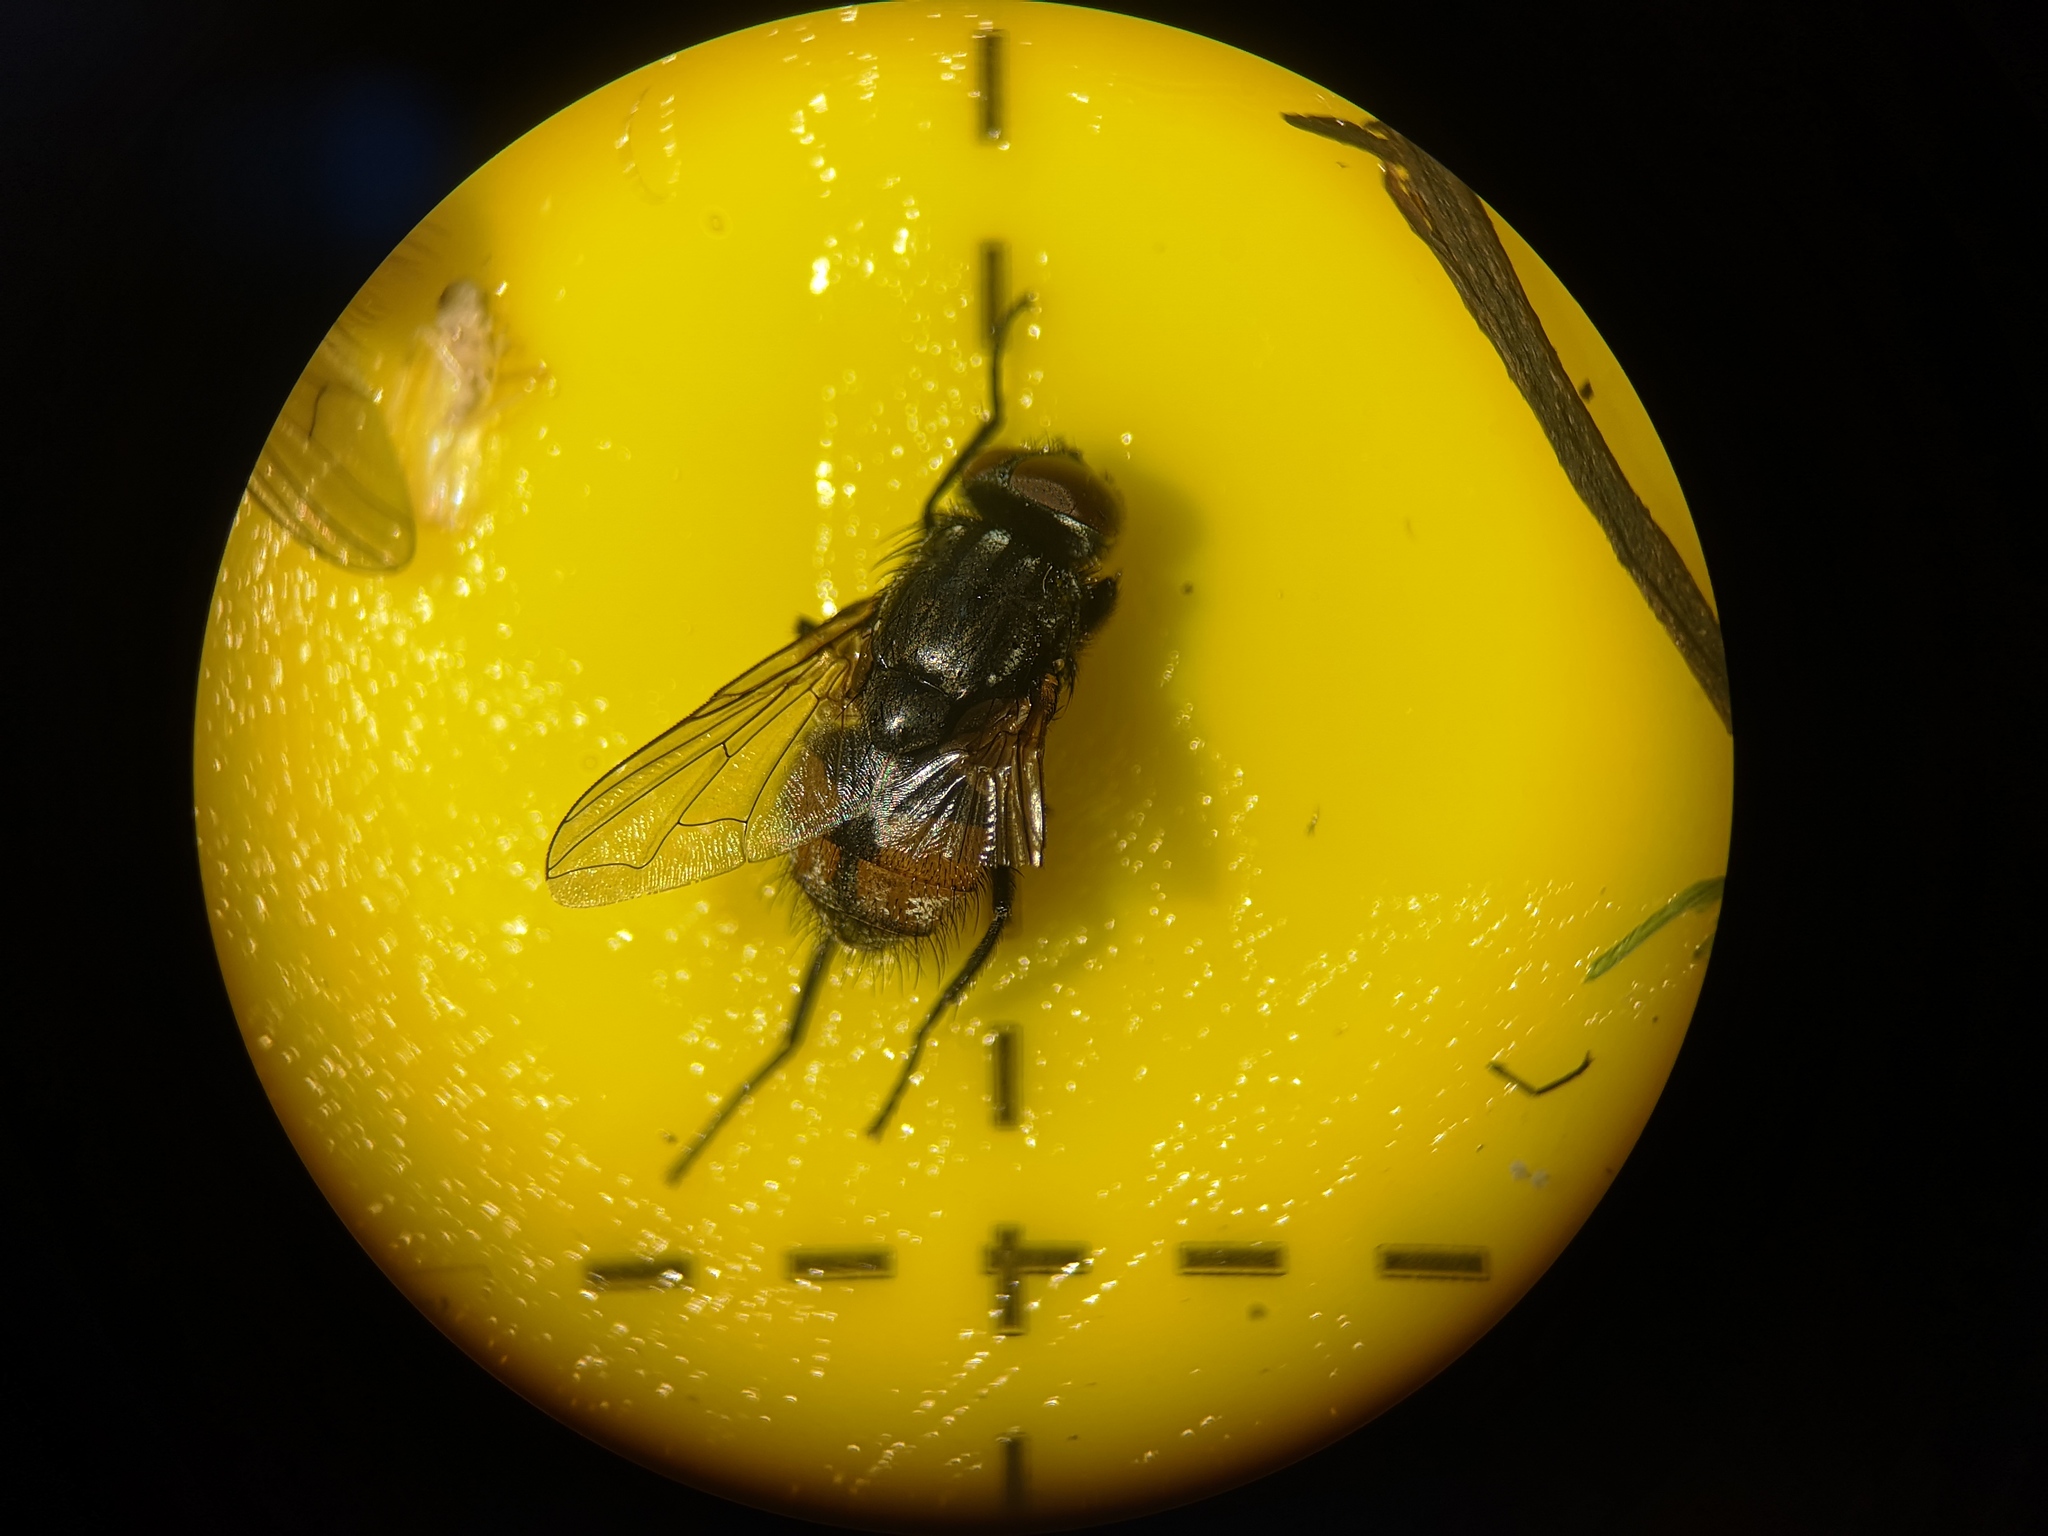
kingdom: Animalia
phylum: Arthropoda
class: Insecta
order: Diptera
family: Muscidae
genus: Musca
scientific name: Musca autumnalis
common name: Face fly
